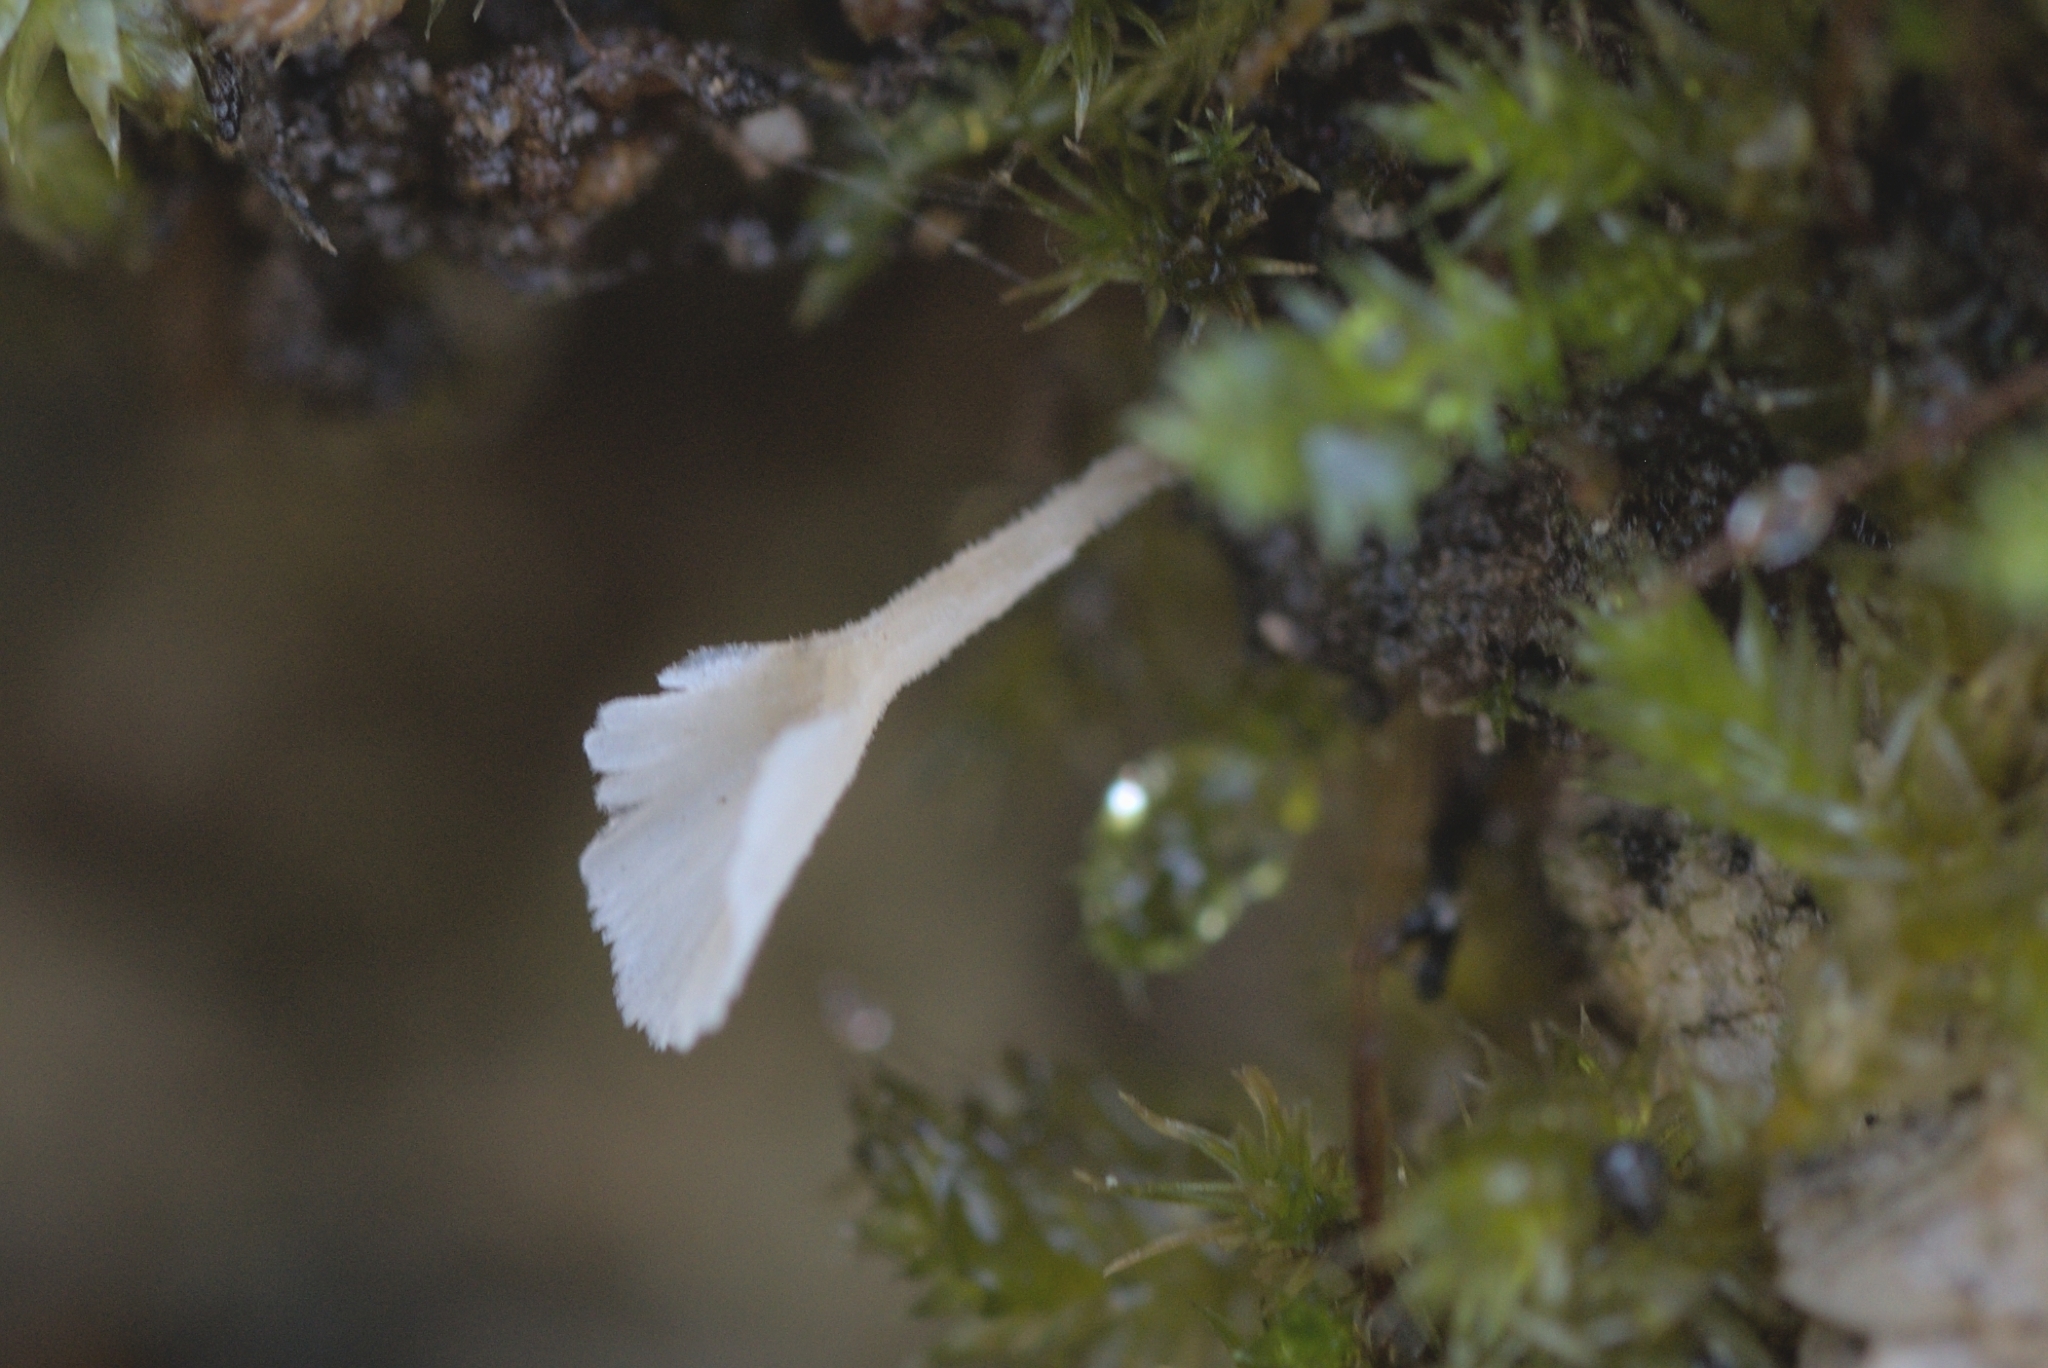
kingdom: Fungi
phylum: Basidiomycota
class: Agaricomycetes
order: Hymenochaetales
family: Rickenellaceae
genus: Cotylidia
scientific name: Cotylidia muscigena
